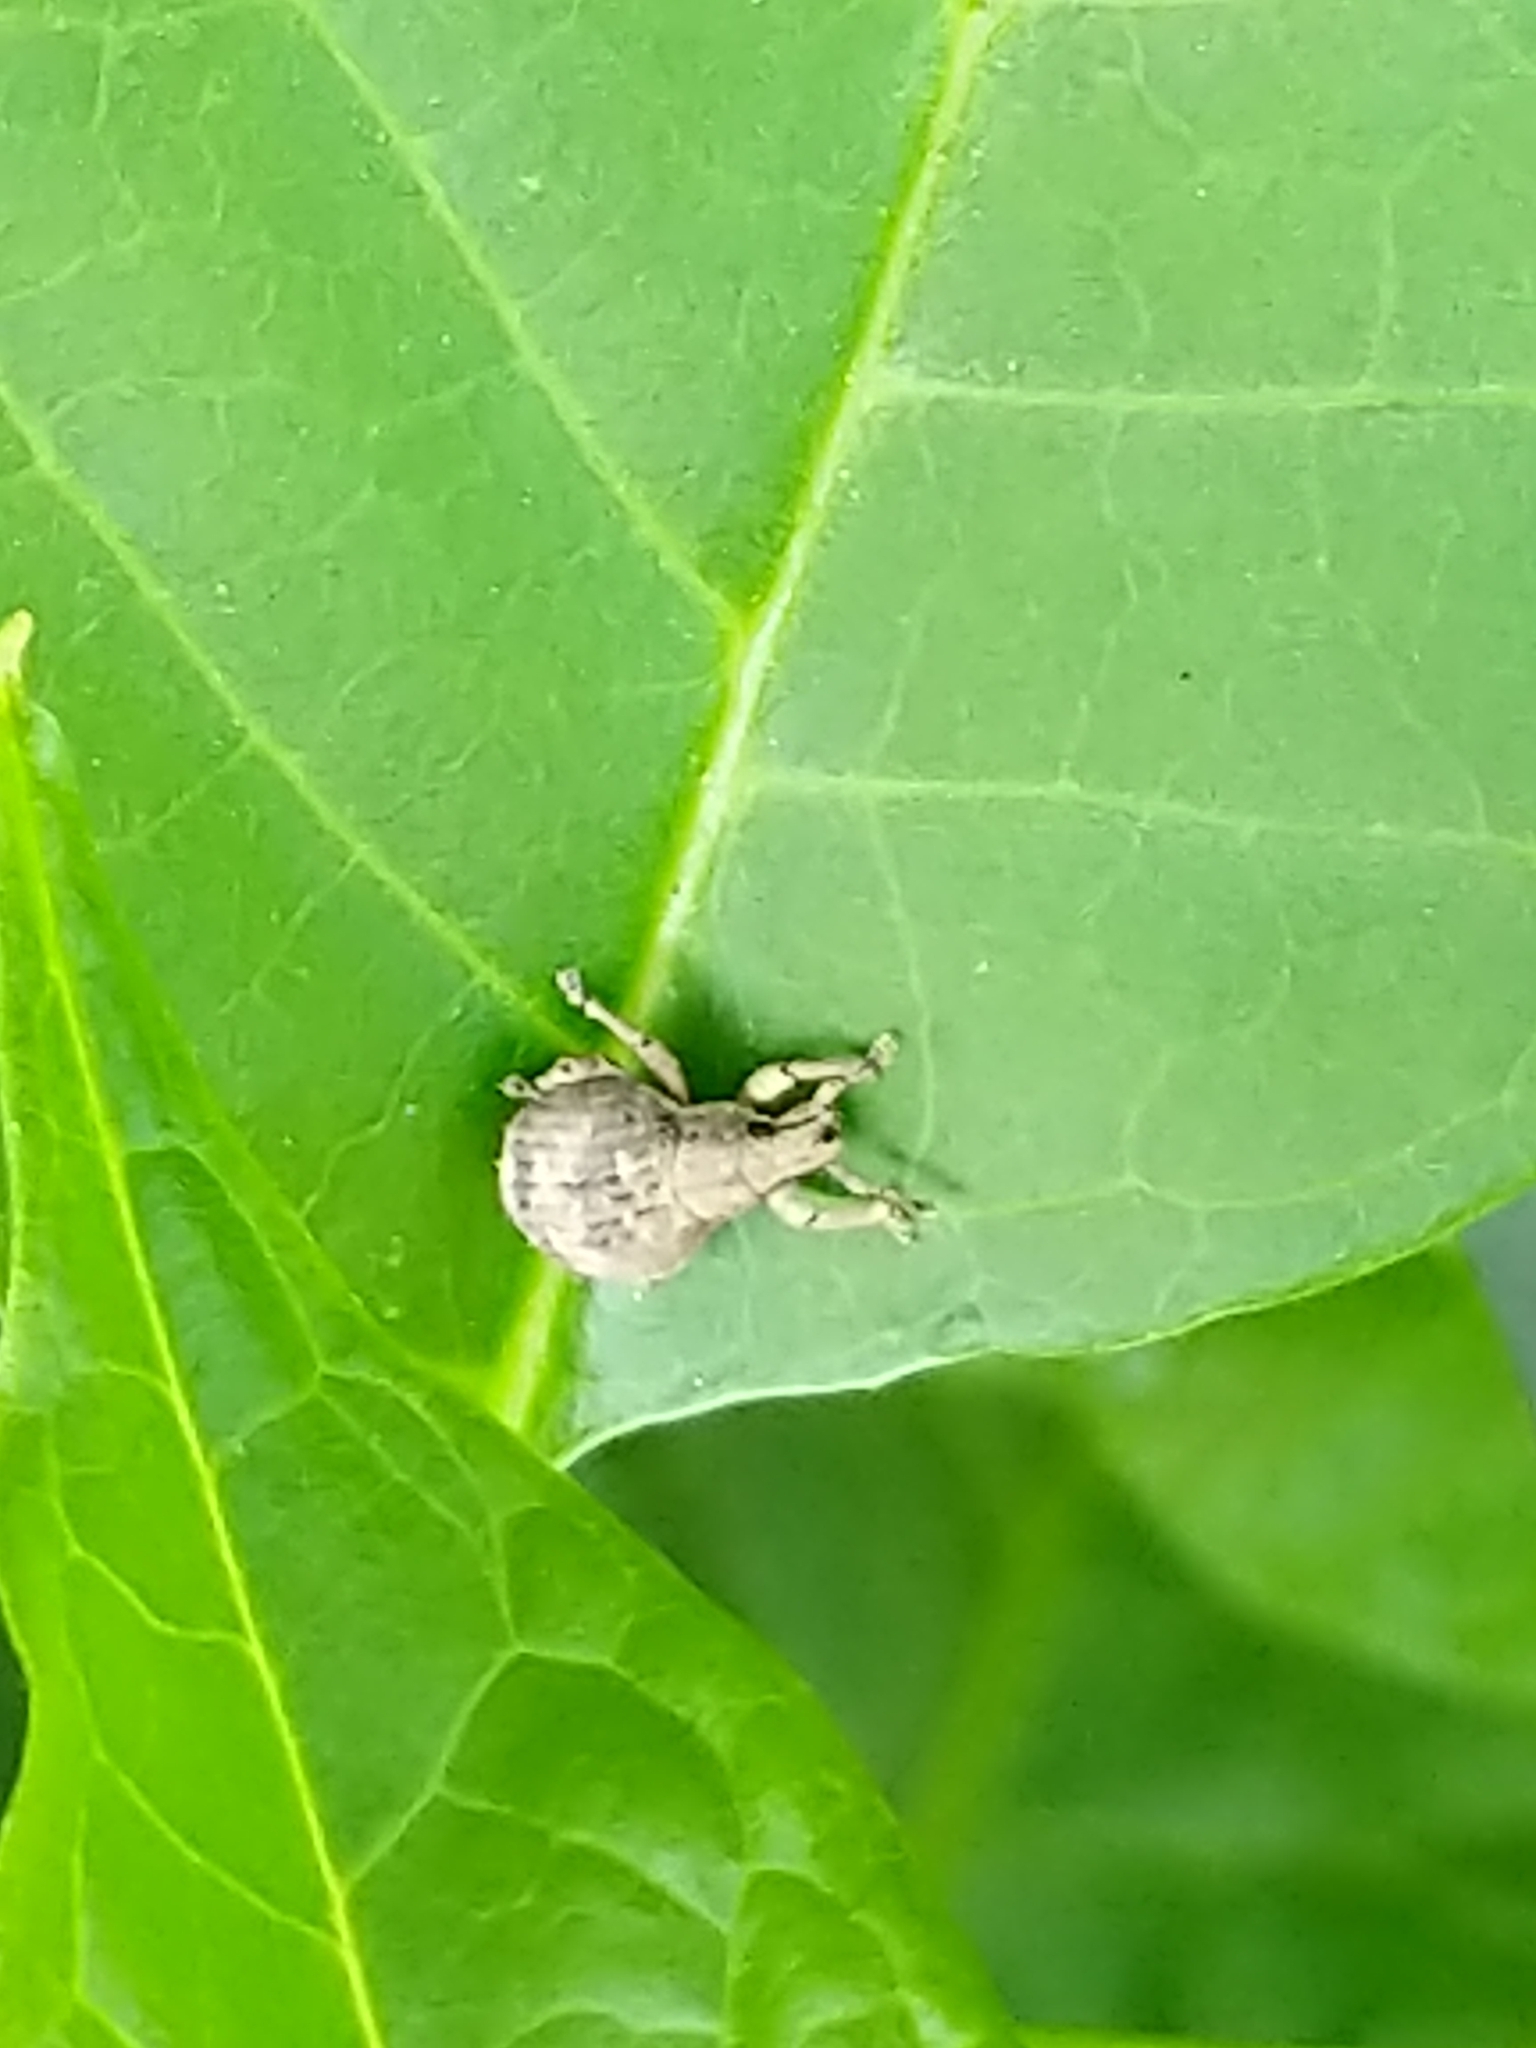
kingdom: Animalia
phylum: Arthropoda
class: Insecta
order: Coleoptera
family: Curculionidae
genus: Pseudocneorhinus
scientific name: Pseudocneorhinus bifasciatus
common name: Two-banded japanese weevil
